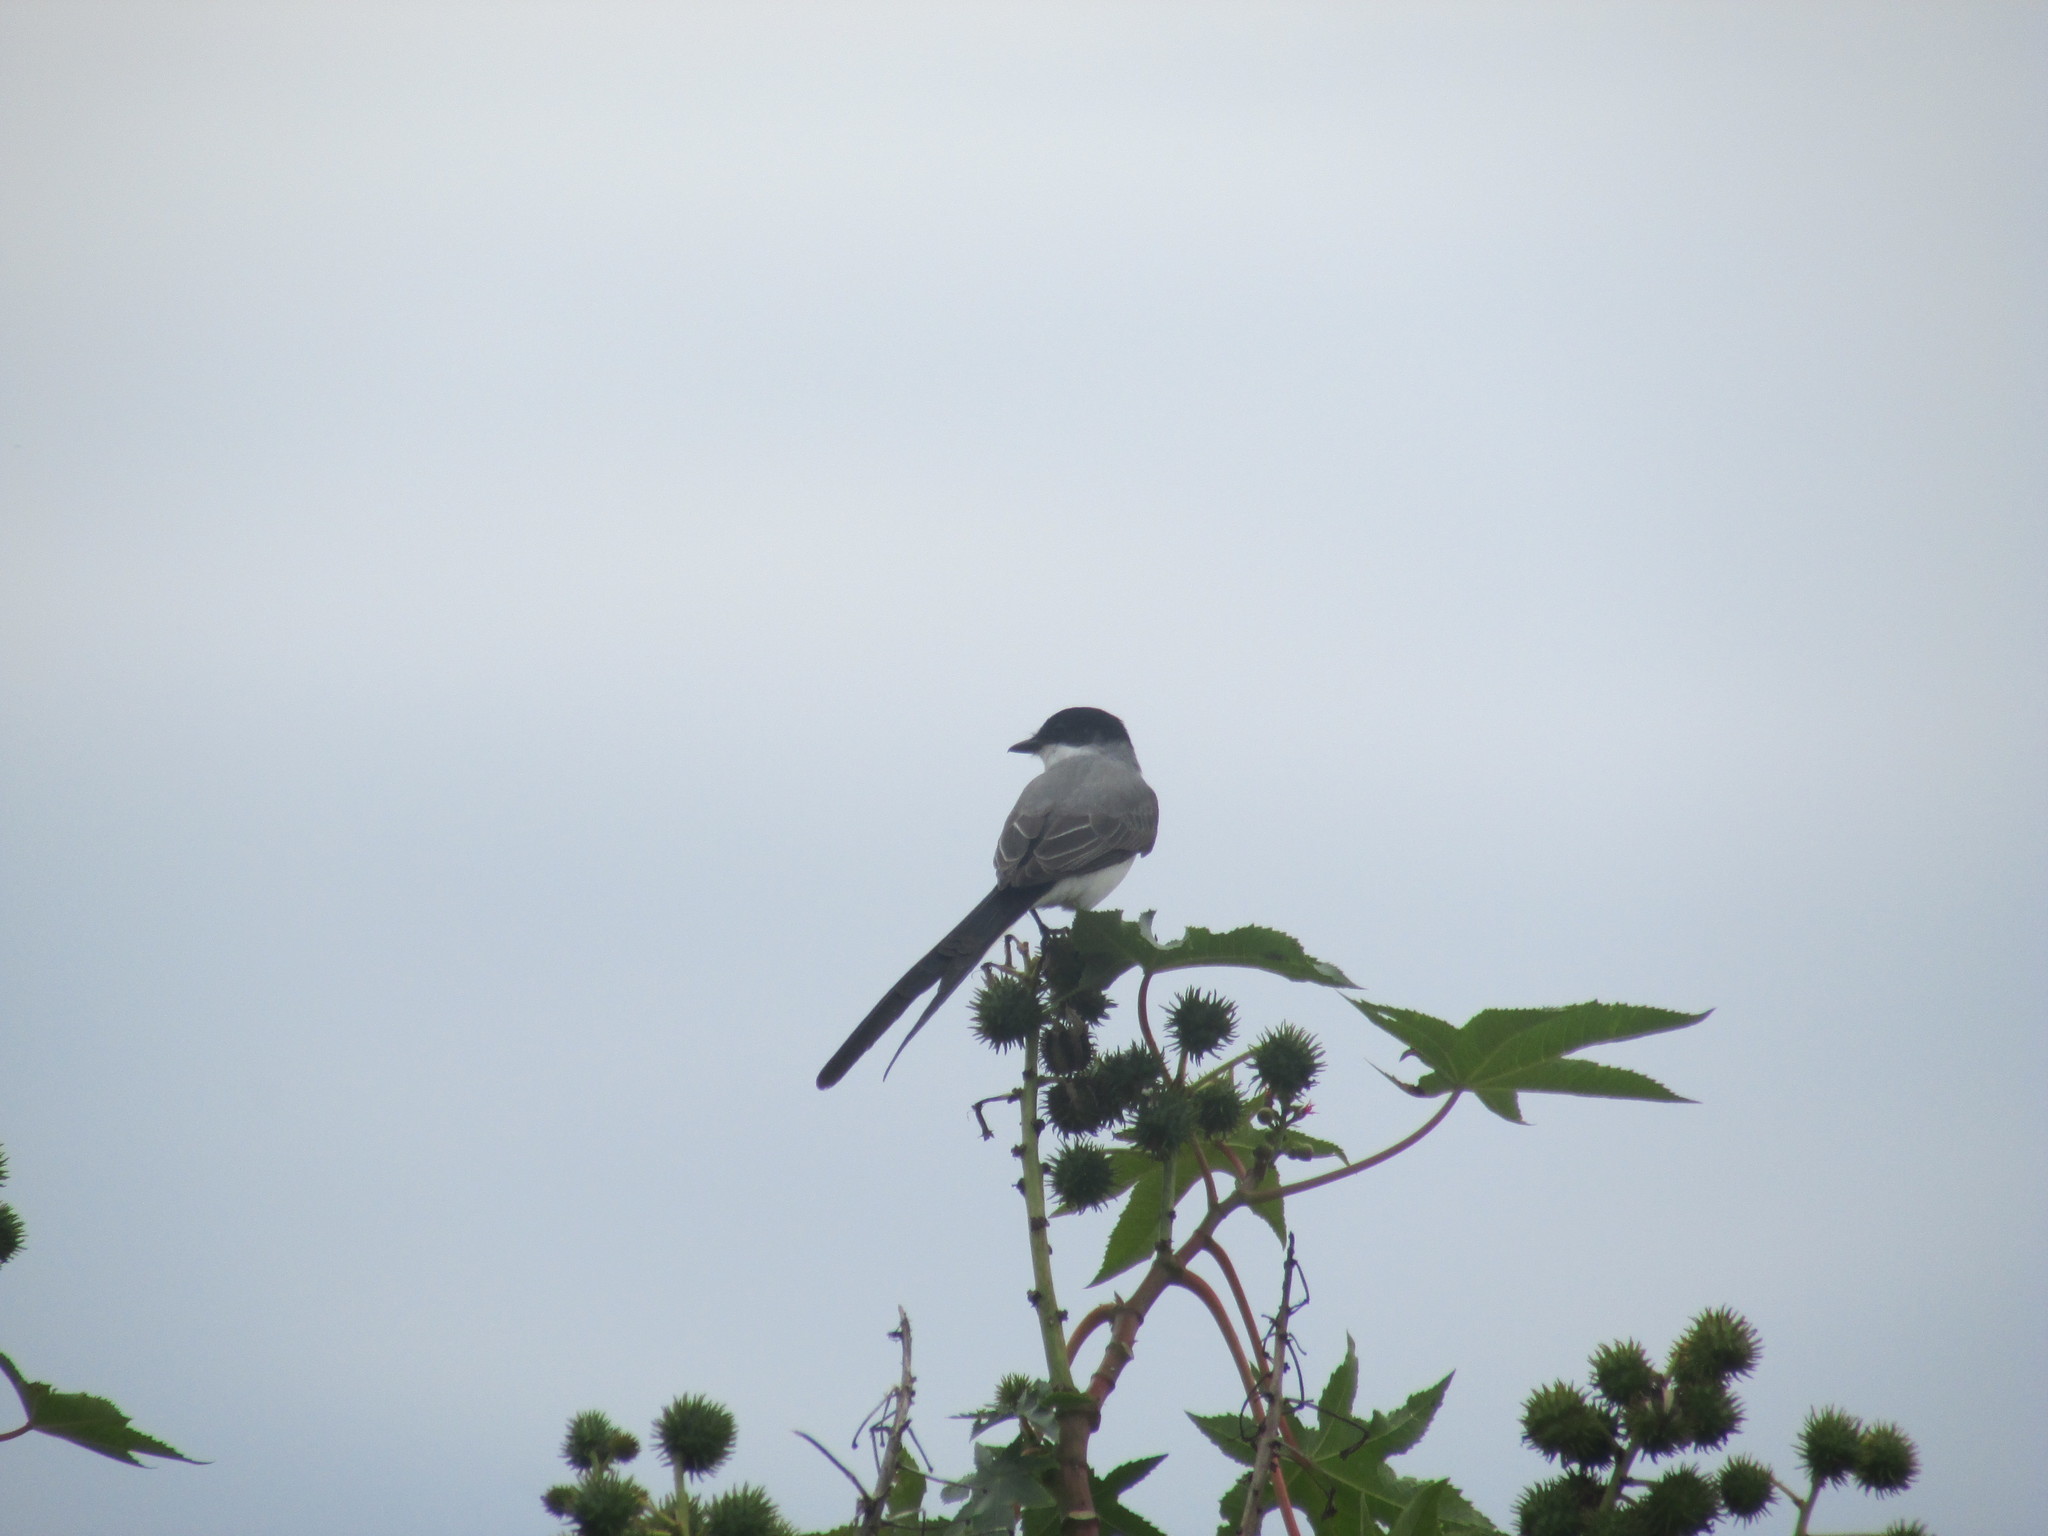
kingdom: Animalia
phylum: Chordata
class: Aves
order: Passeriformes
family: Tyrannidae
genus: Tyrannus
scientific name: Tyrannus savana
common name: Fork-tailed flycatcher
